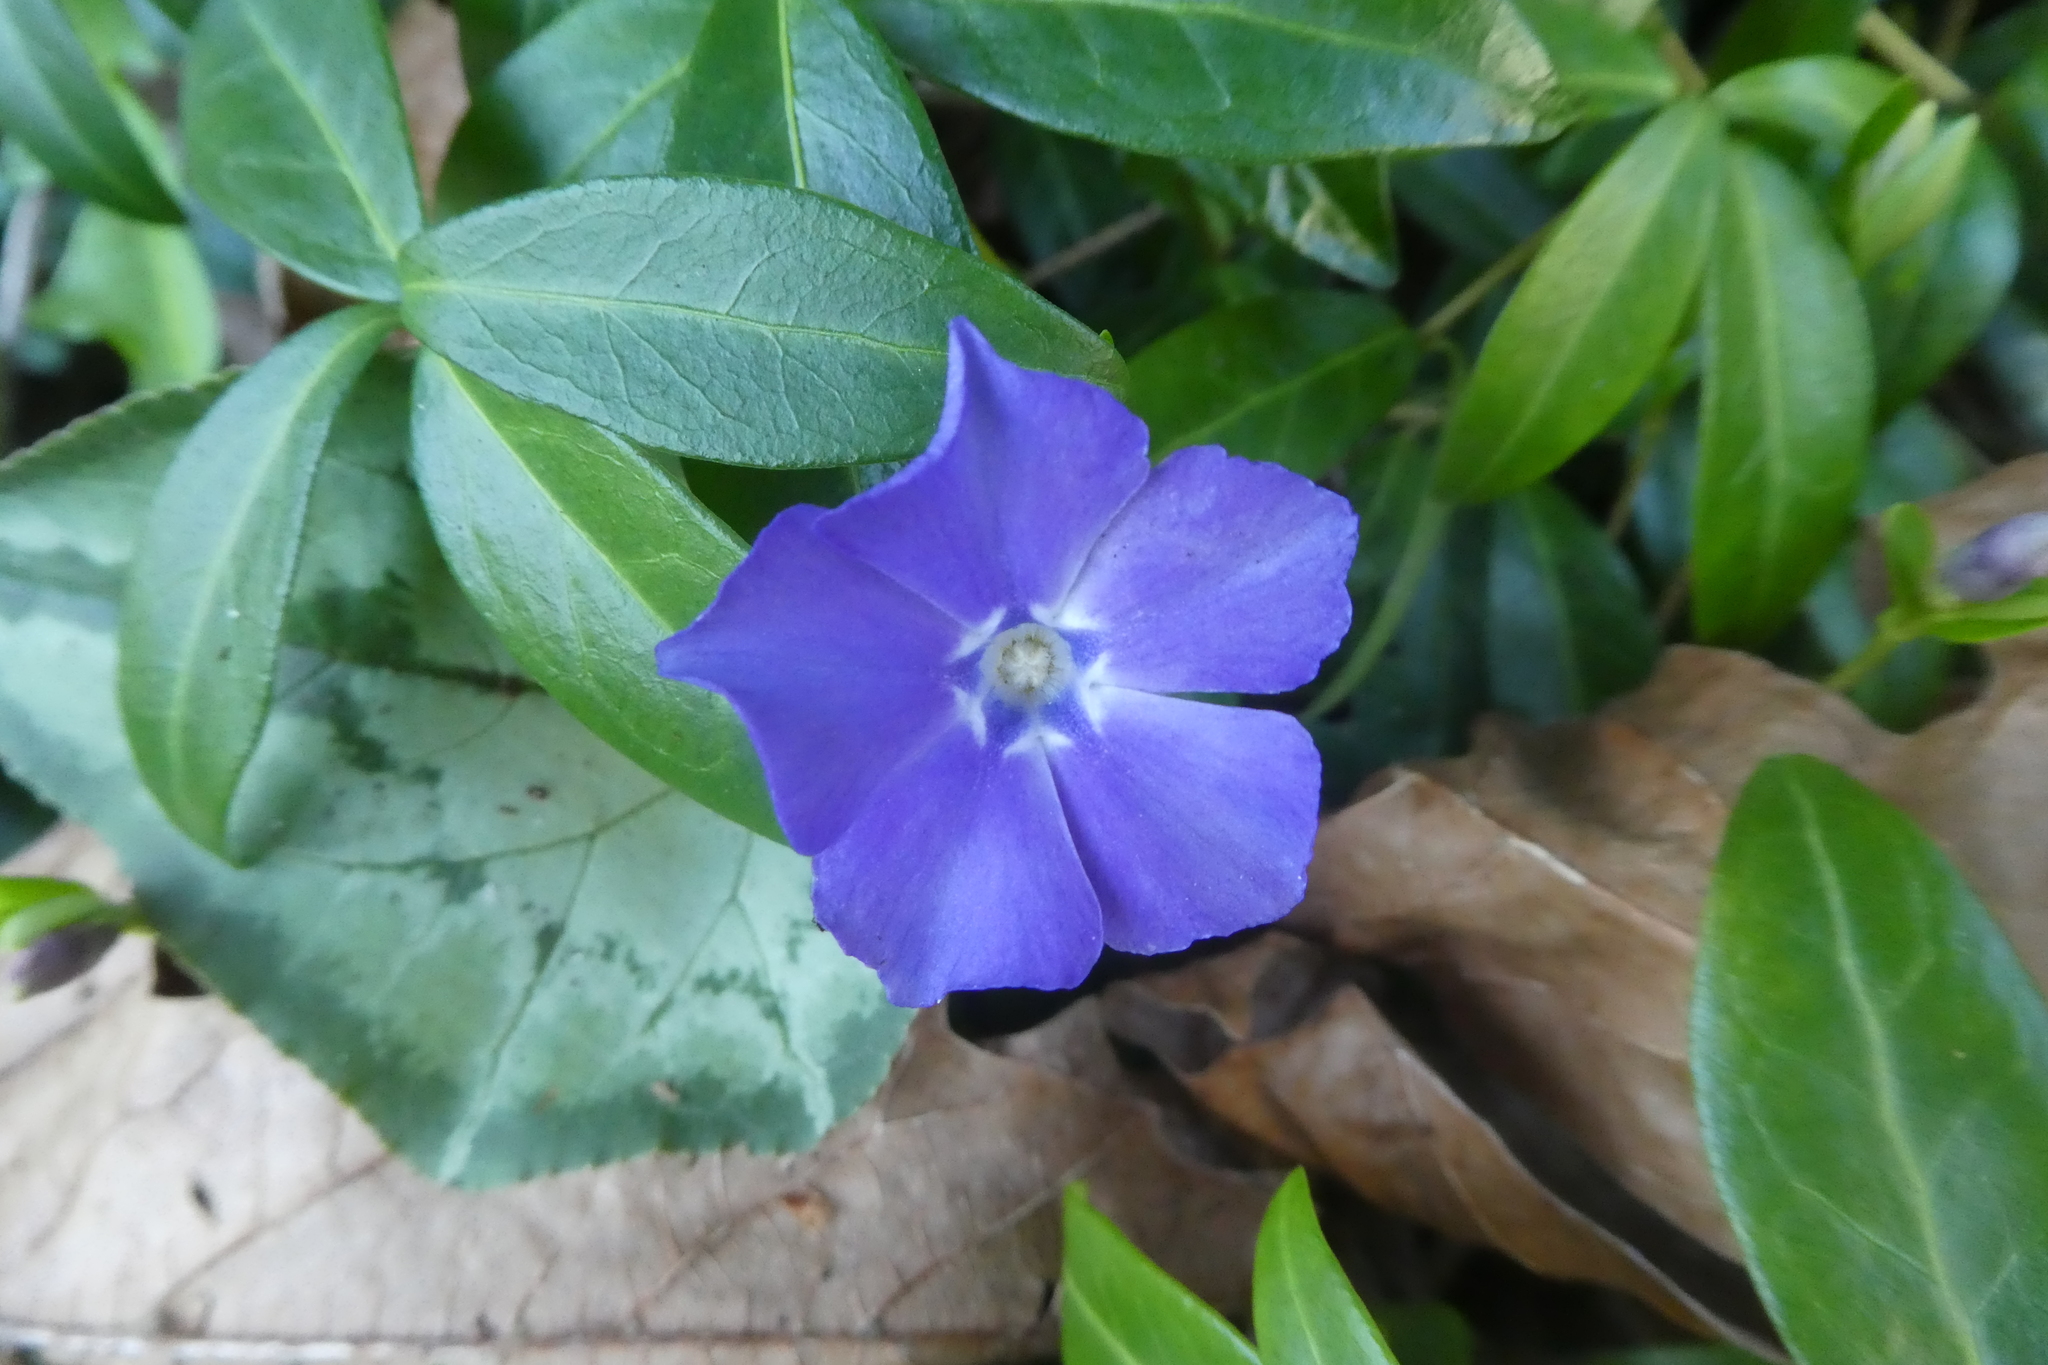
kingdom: Plantae
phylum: Tracheophyta
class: Magnoliopsida
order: Gentianales
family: Apocynaceae
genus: Vinca
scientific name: Vinca minor
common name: Lesser periwinkle
